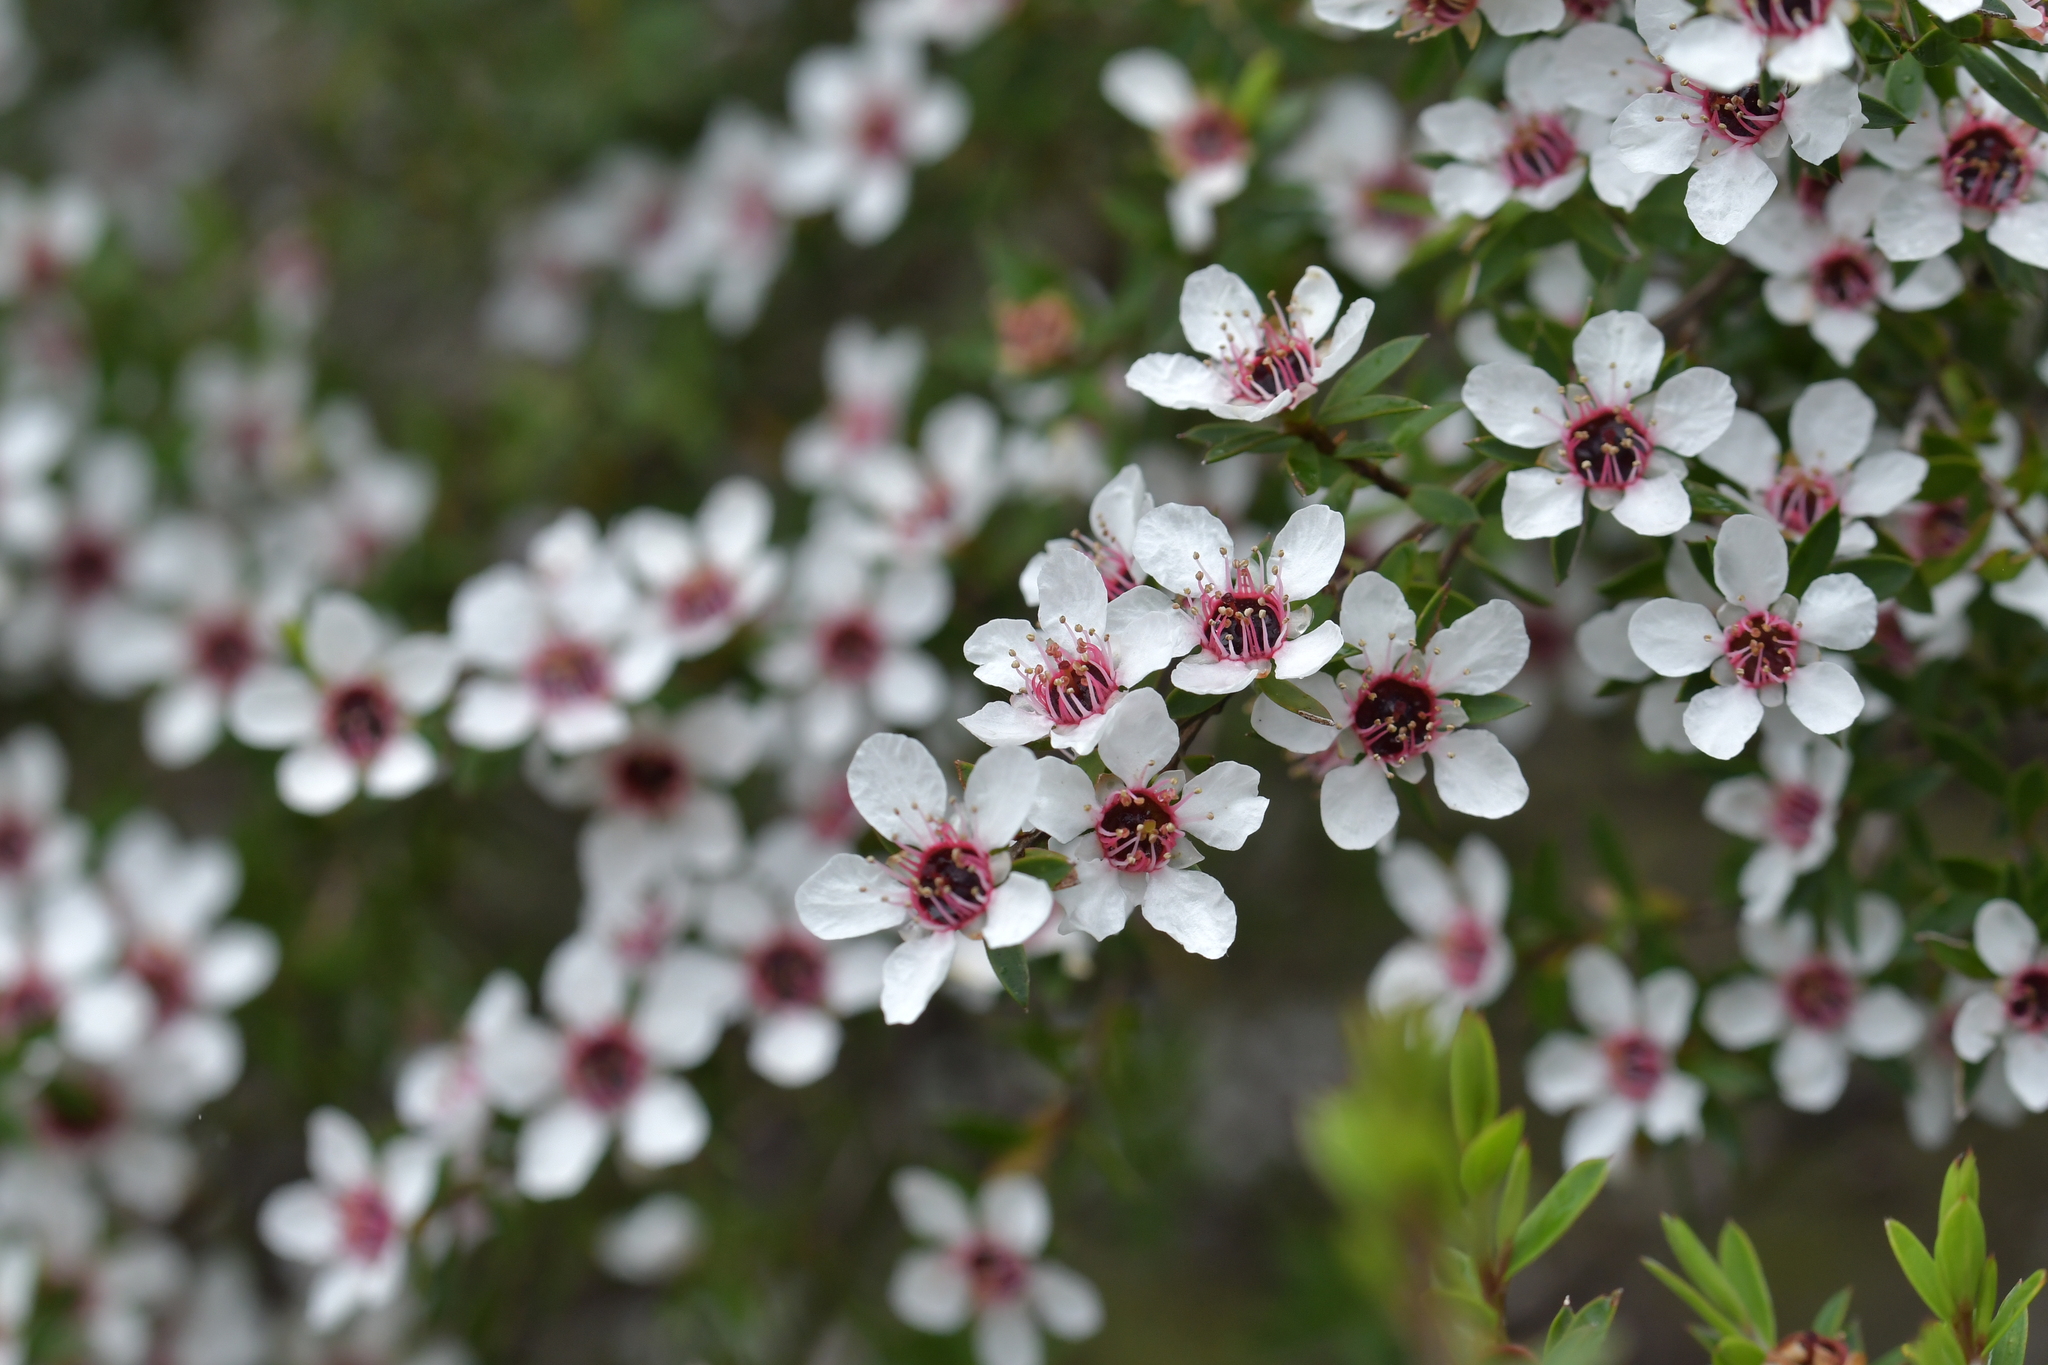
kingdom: Plantae
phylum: Tracheophyta
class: Magnoliopsida
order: Myrtales
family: Myrtaceae
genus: Leptospermum
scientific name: Leptospermum scoparium
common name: Broom tea-tree
